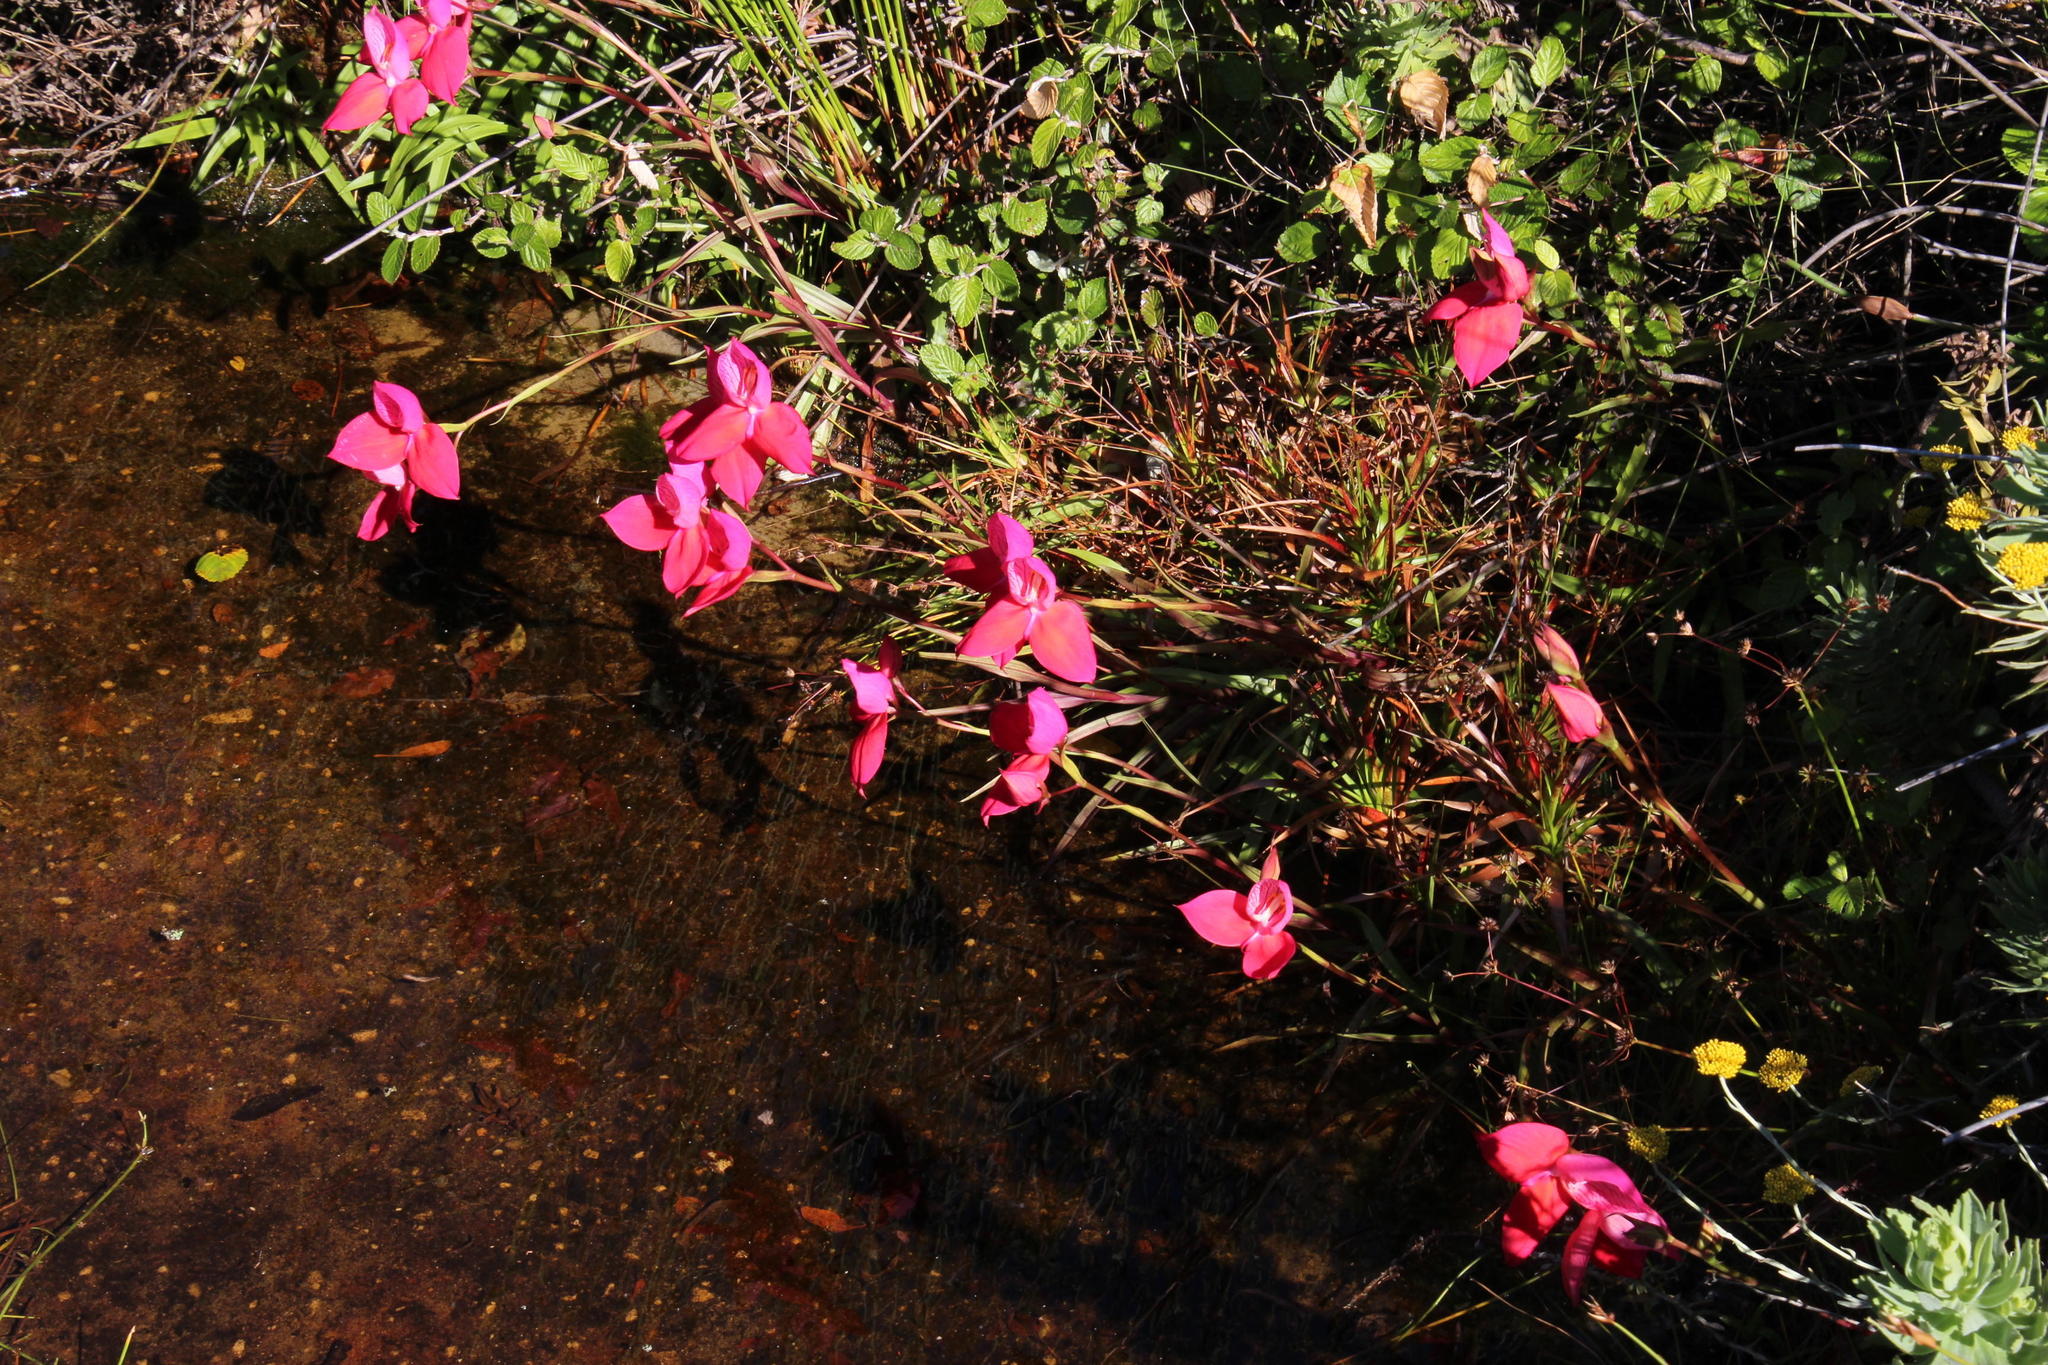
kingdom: Plantae
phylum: Tracheophyta
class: Liliopsida
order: Asparagales
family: Orchidaceae
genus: Disa
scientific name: Disa uniflora
